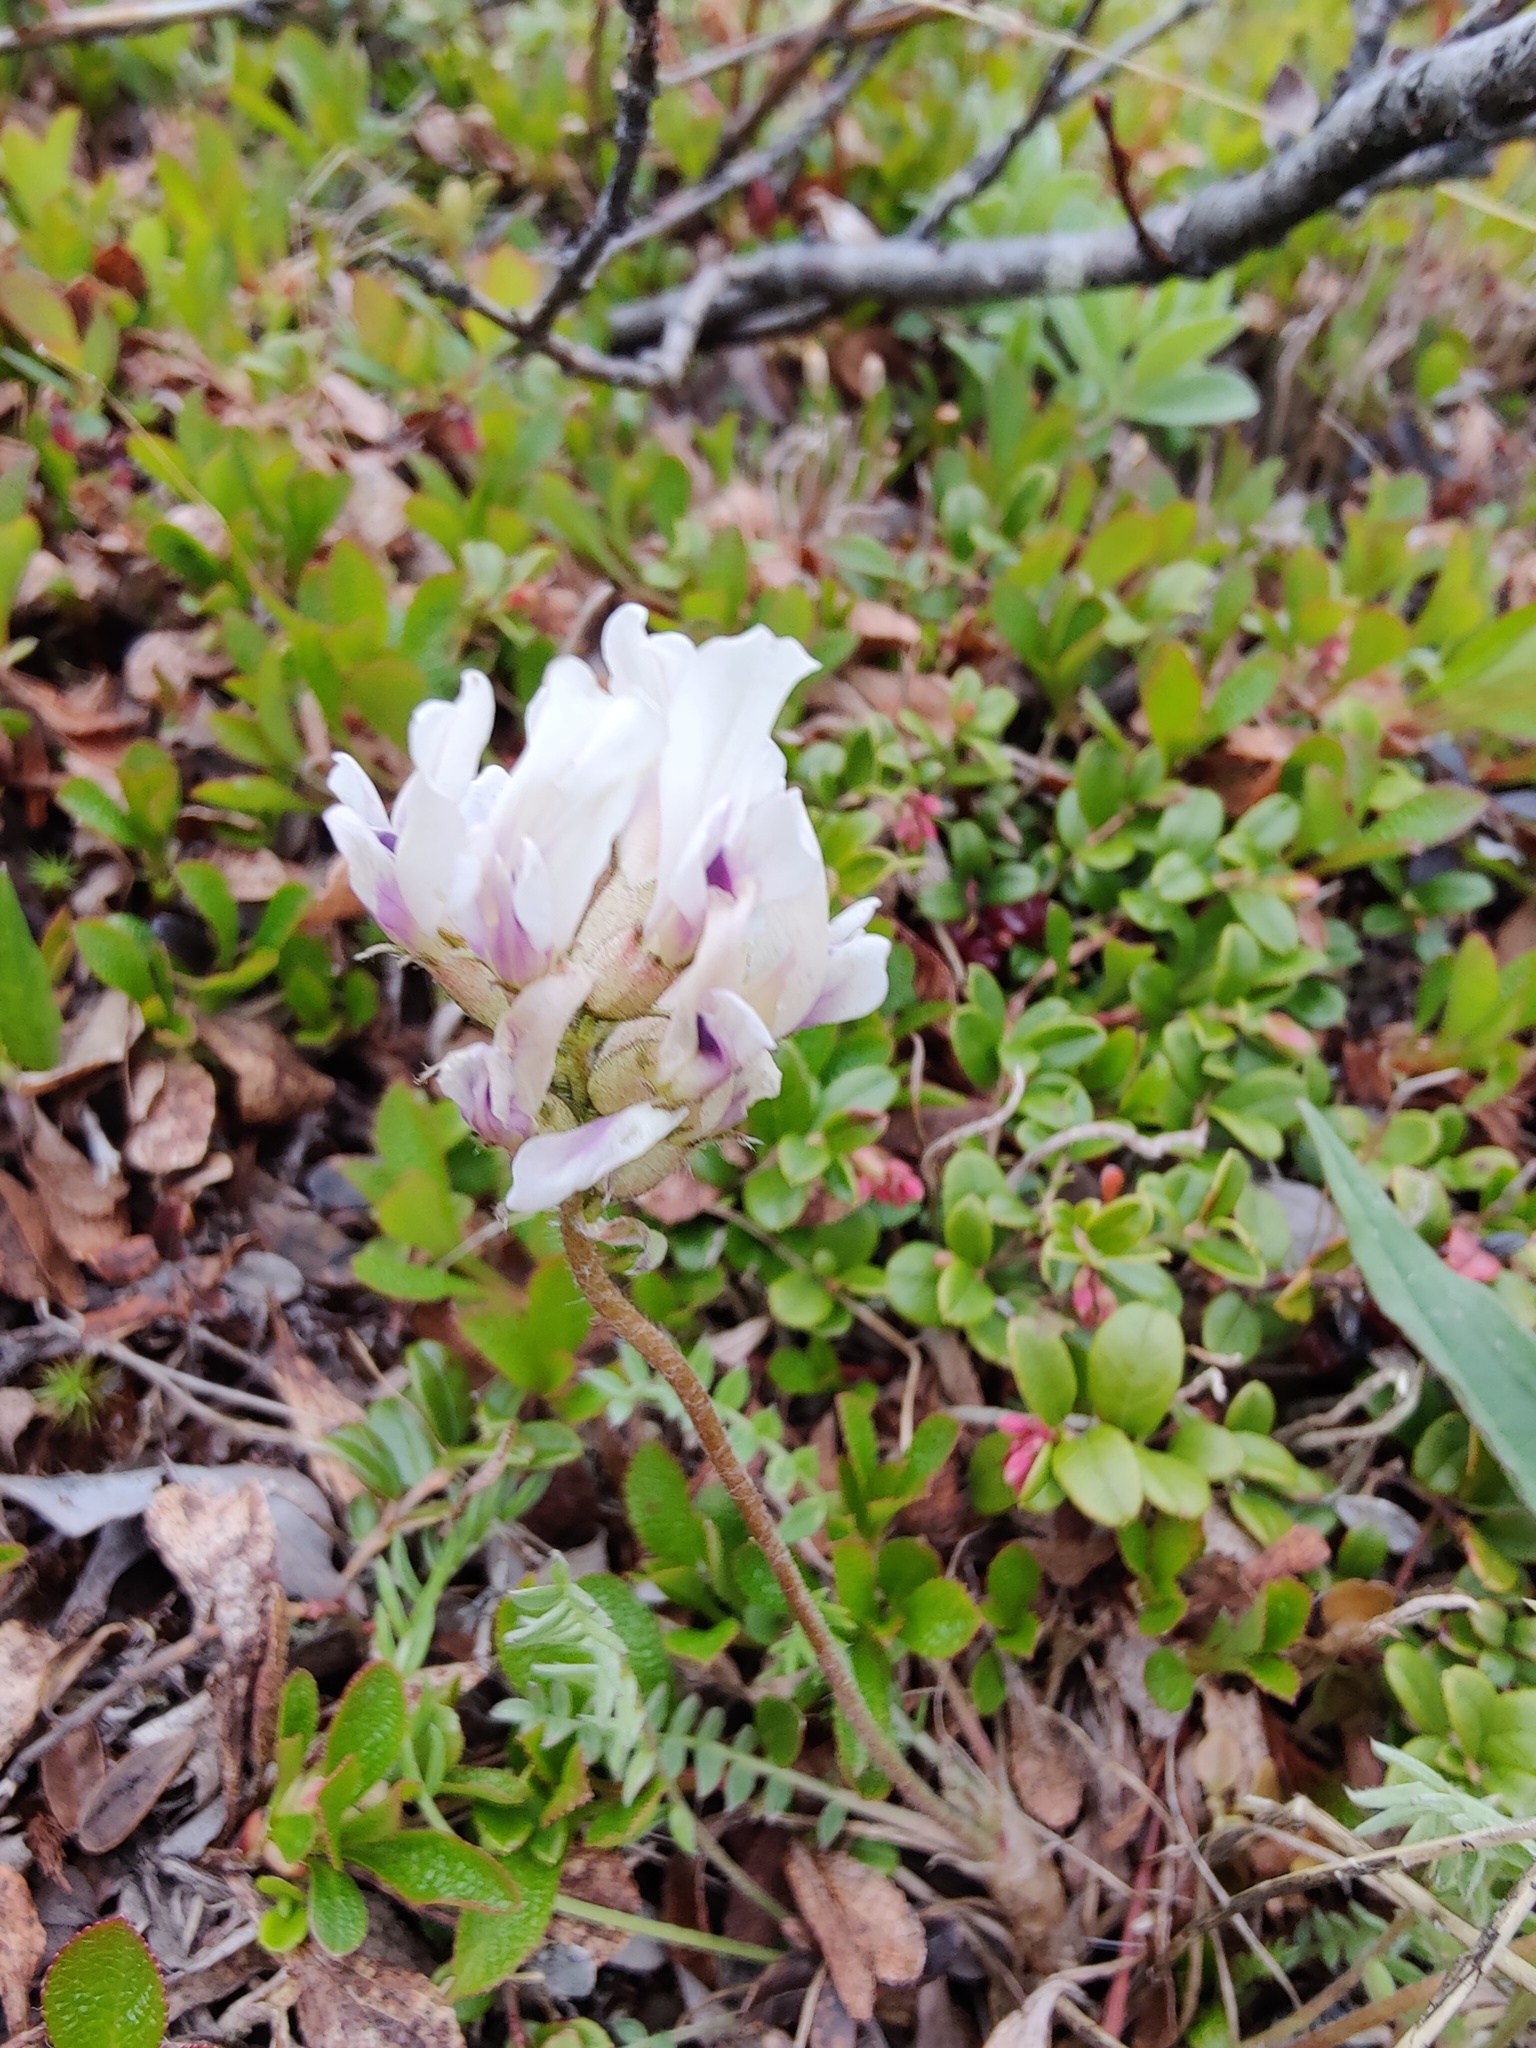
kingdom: Plantae
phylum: Tracheophyta
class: Magnoliopsida
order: Fabales
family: Fabaceae
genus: Oxytropis
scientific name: Oxytropis sordida
